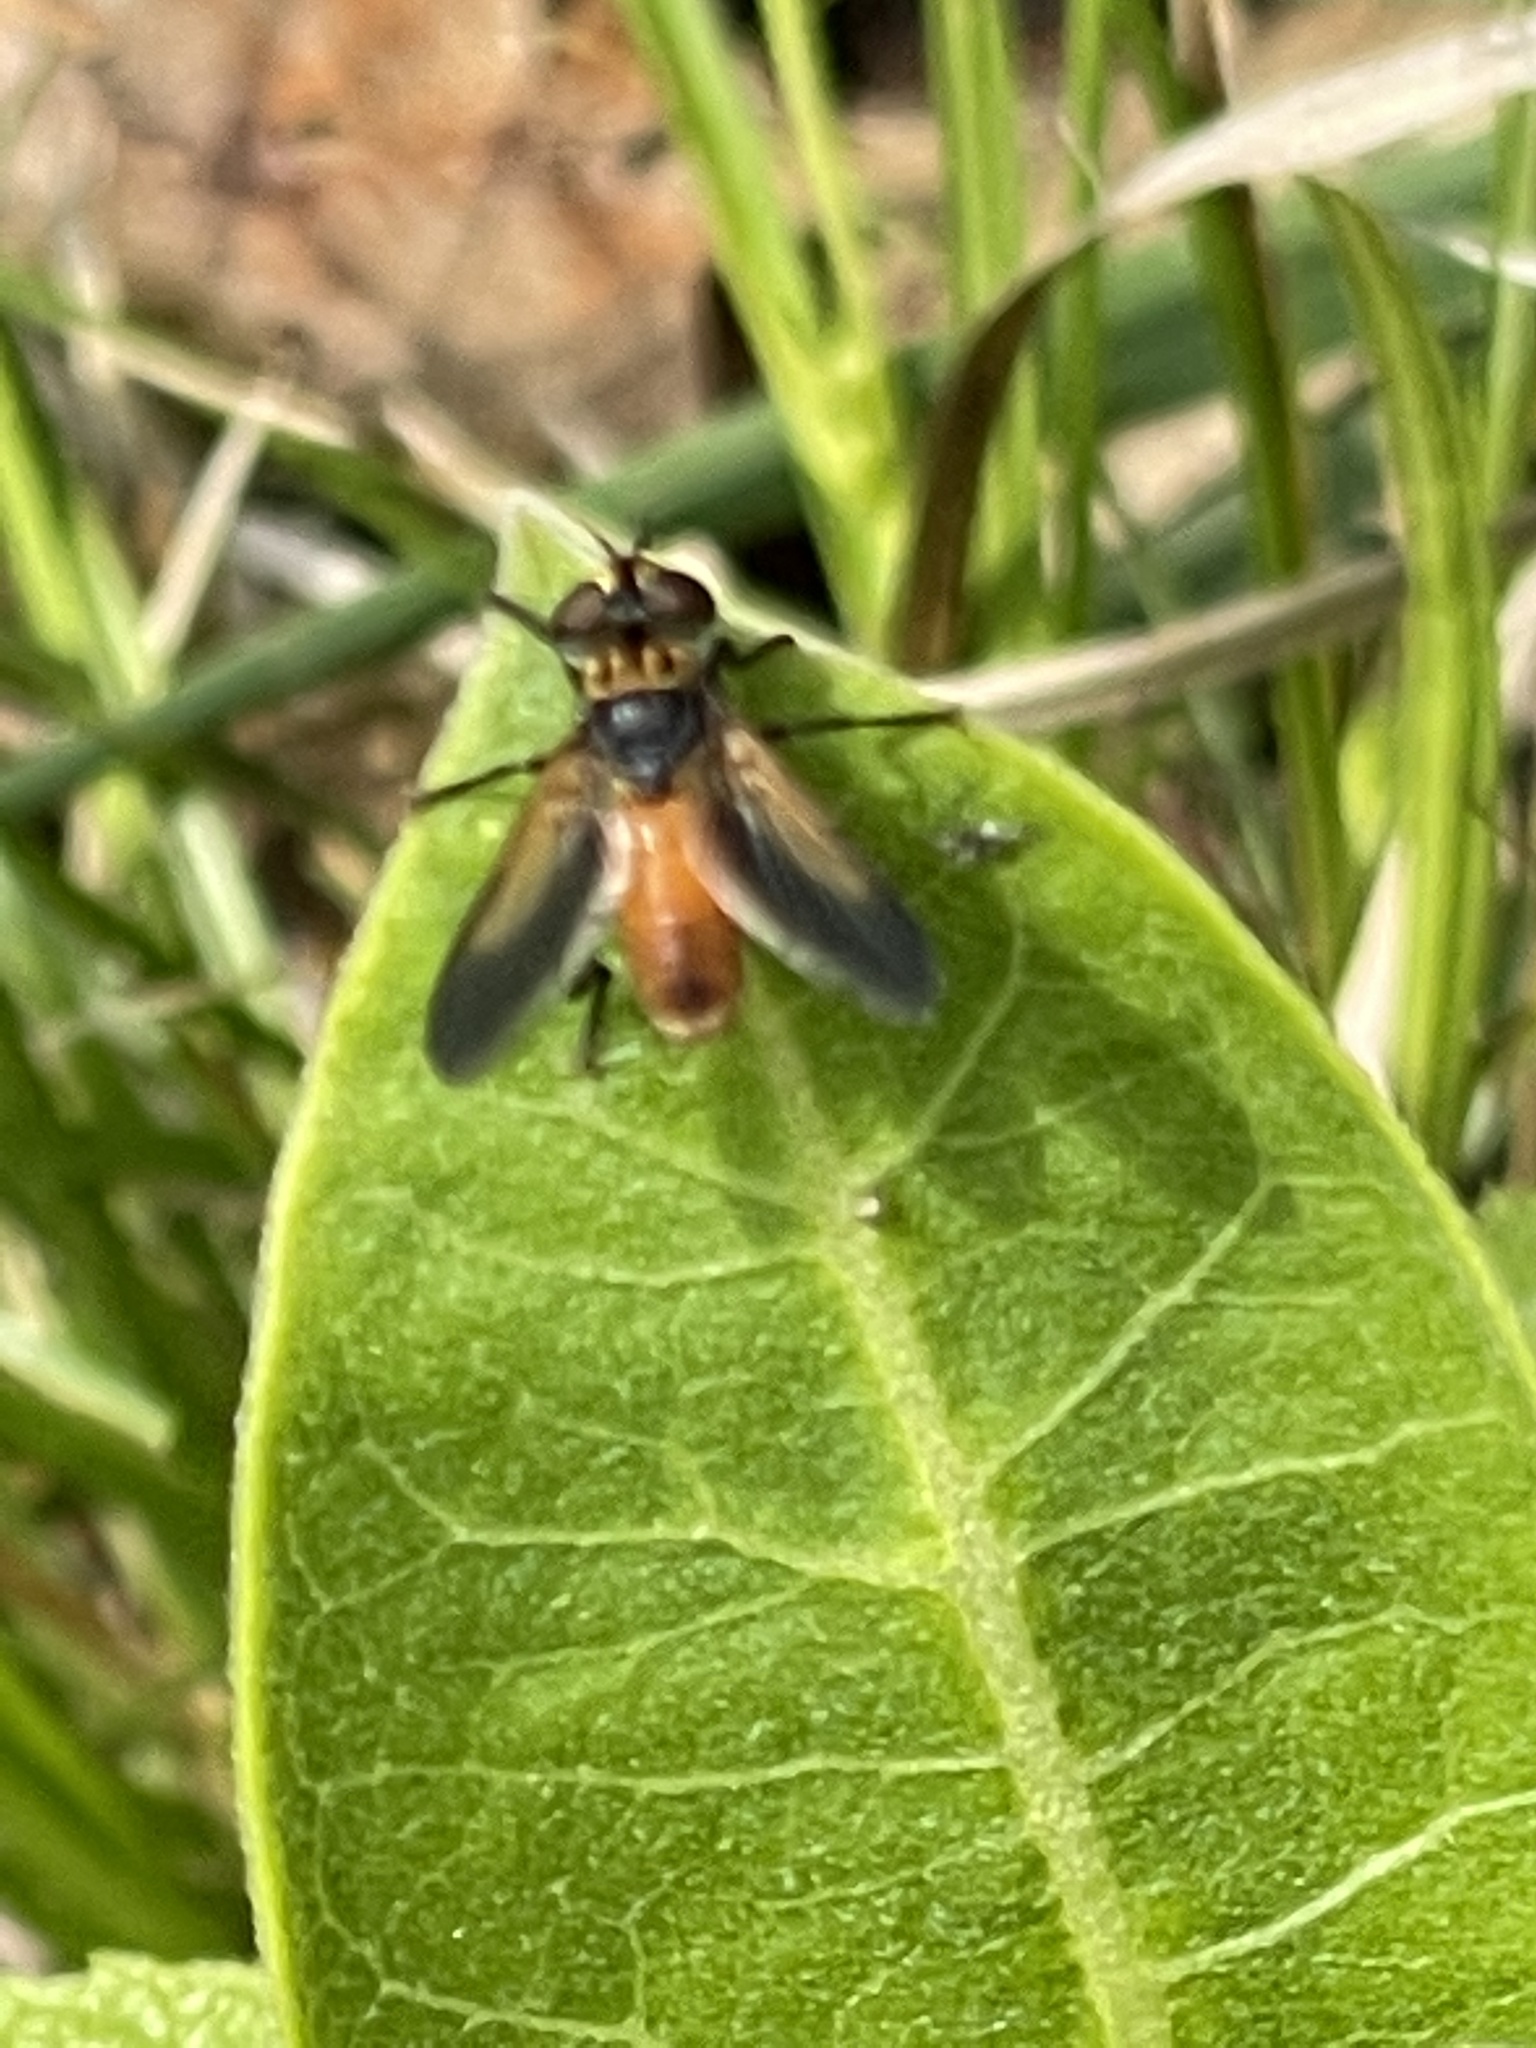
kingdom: Animalia
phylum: Arthropoda
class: Insecta
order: Diptera
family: Tachinidae
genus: Trichopoda
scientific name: Trichopoda pennipes
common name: Tachinid fly
